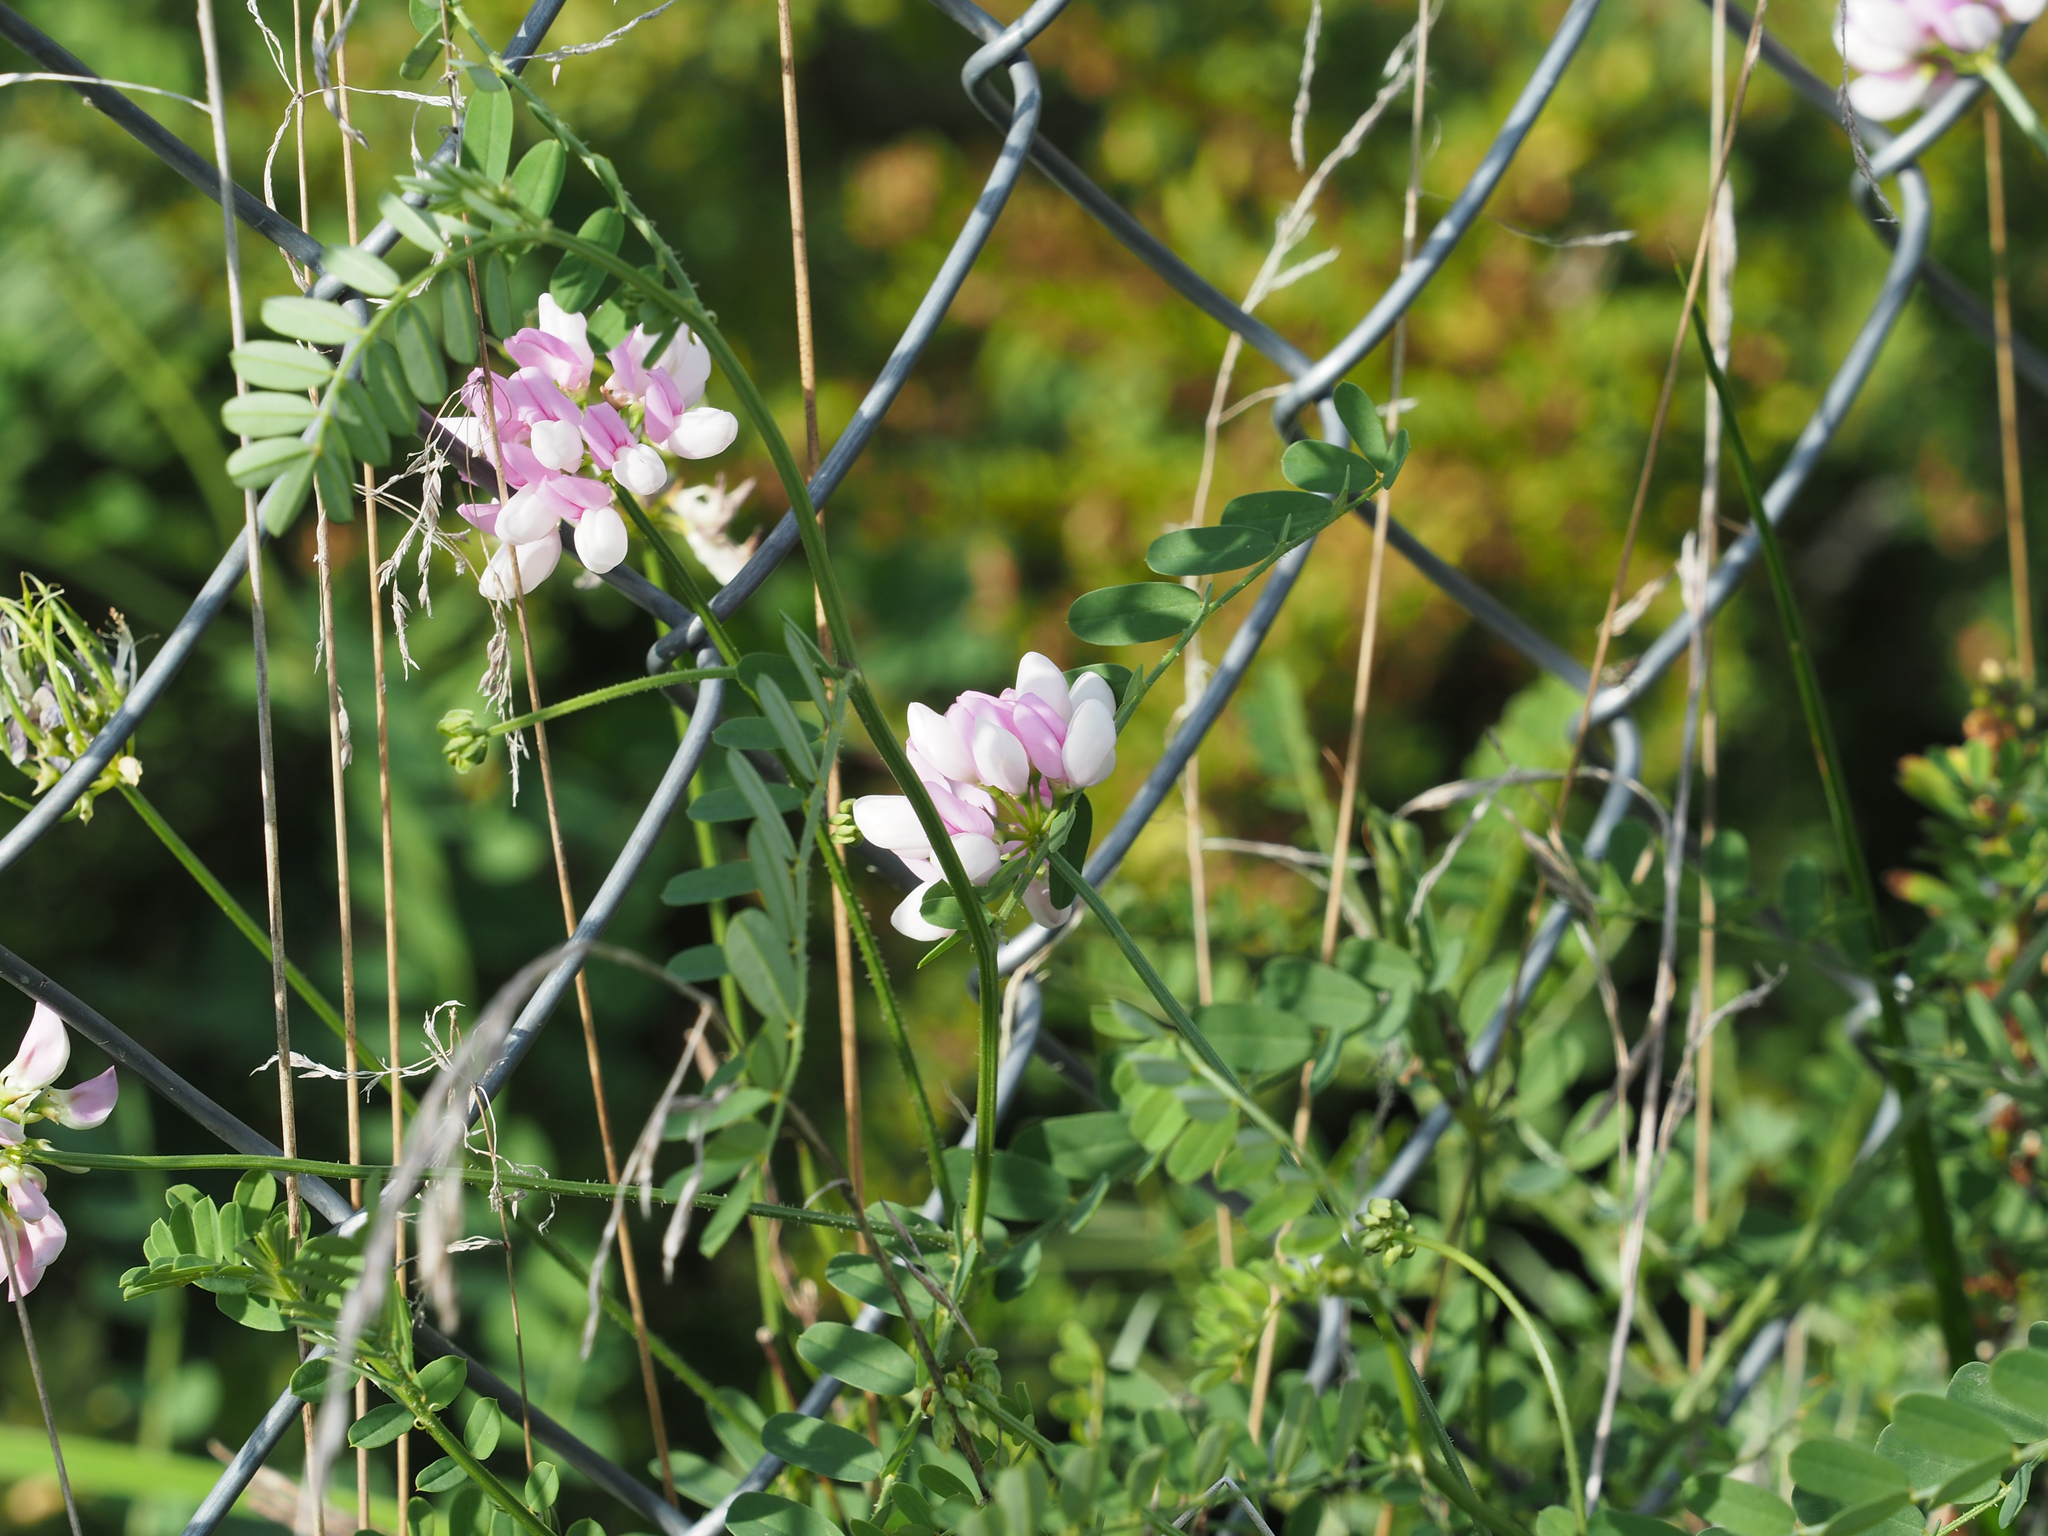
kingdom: Plantae
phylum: Tracheophyta
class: Magnoliopsida
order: Fabales
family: Fabaceae
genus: Coronilla
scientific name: Coronilla varia
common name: Crownvetch
